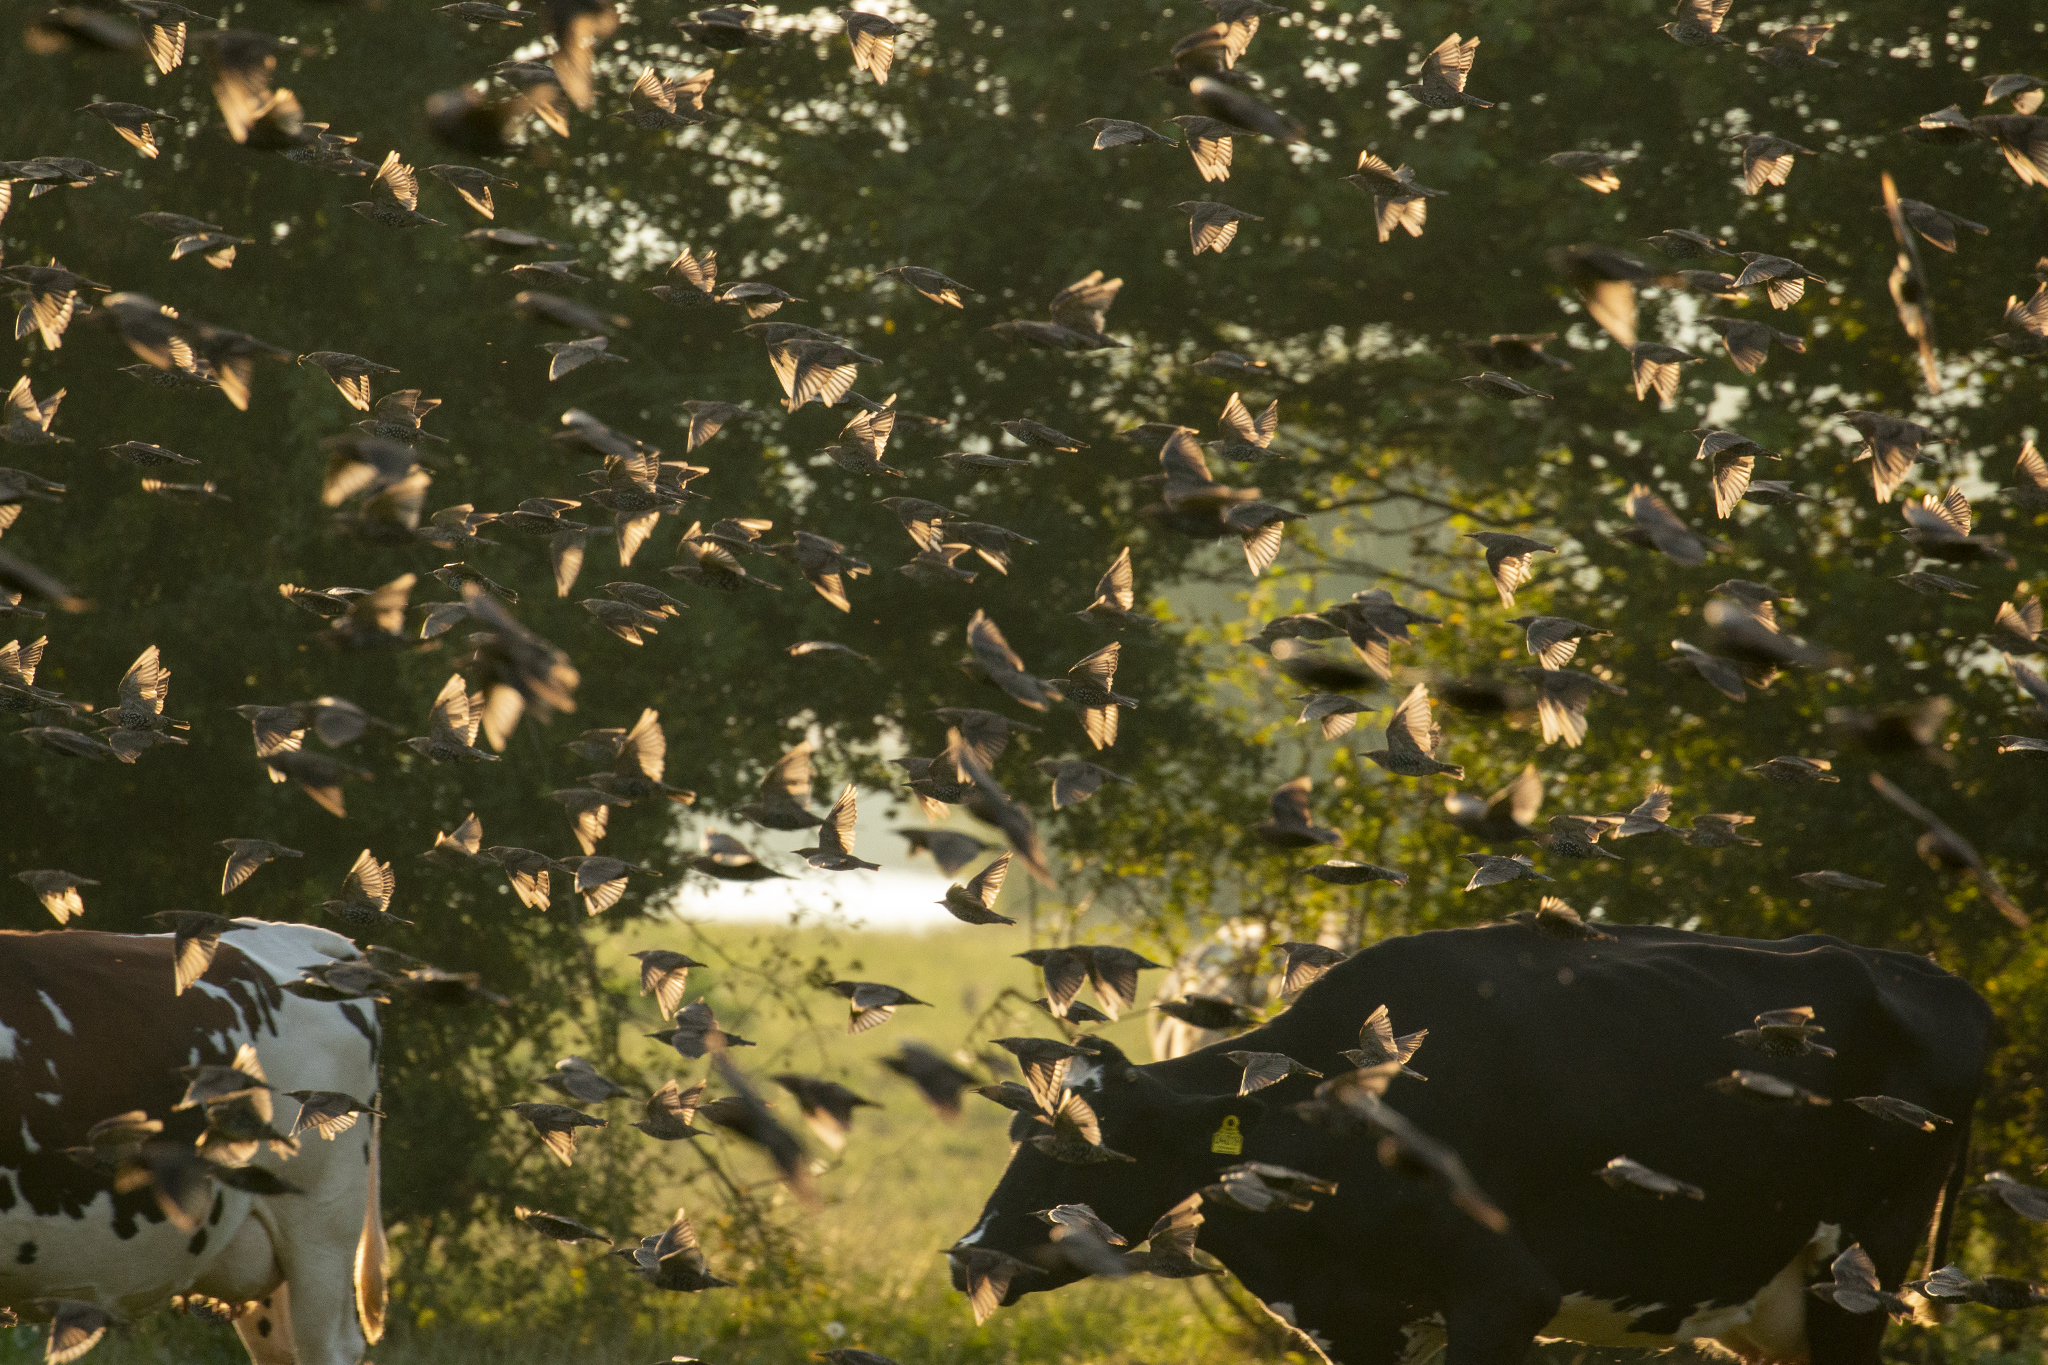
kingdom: Animalia
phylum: Chordata
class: Aves
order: Passeriformes
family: Sturnidae
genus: Sturnus
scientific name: Sturnus vulgaris
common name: Common starling
